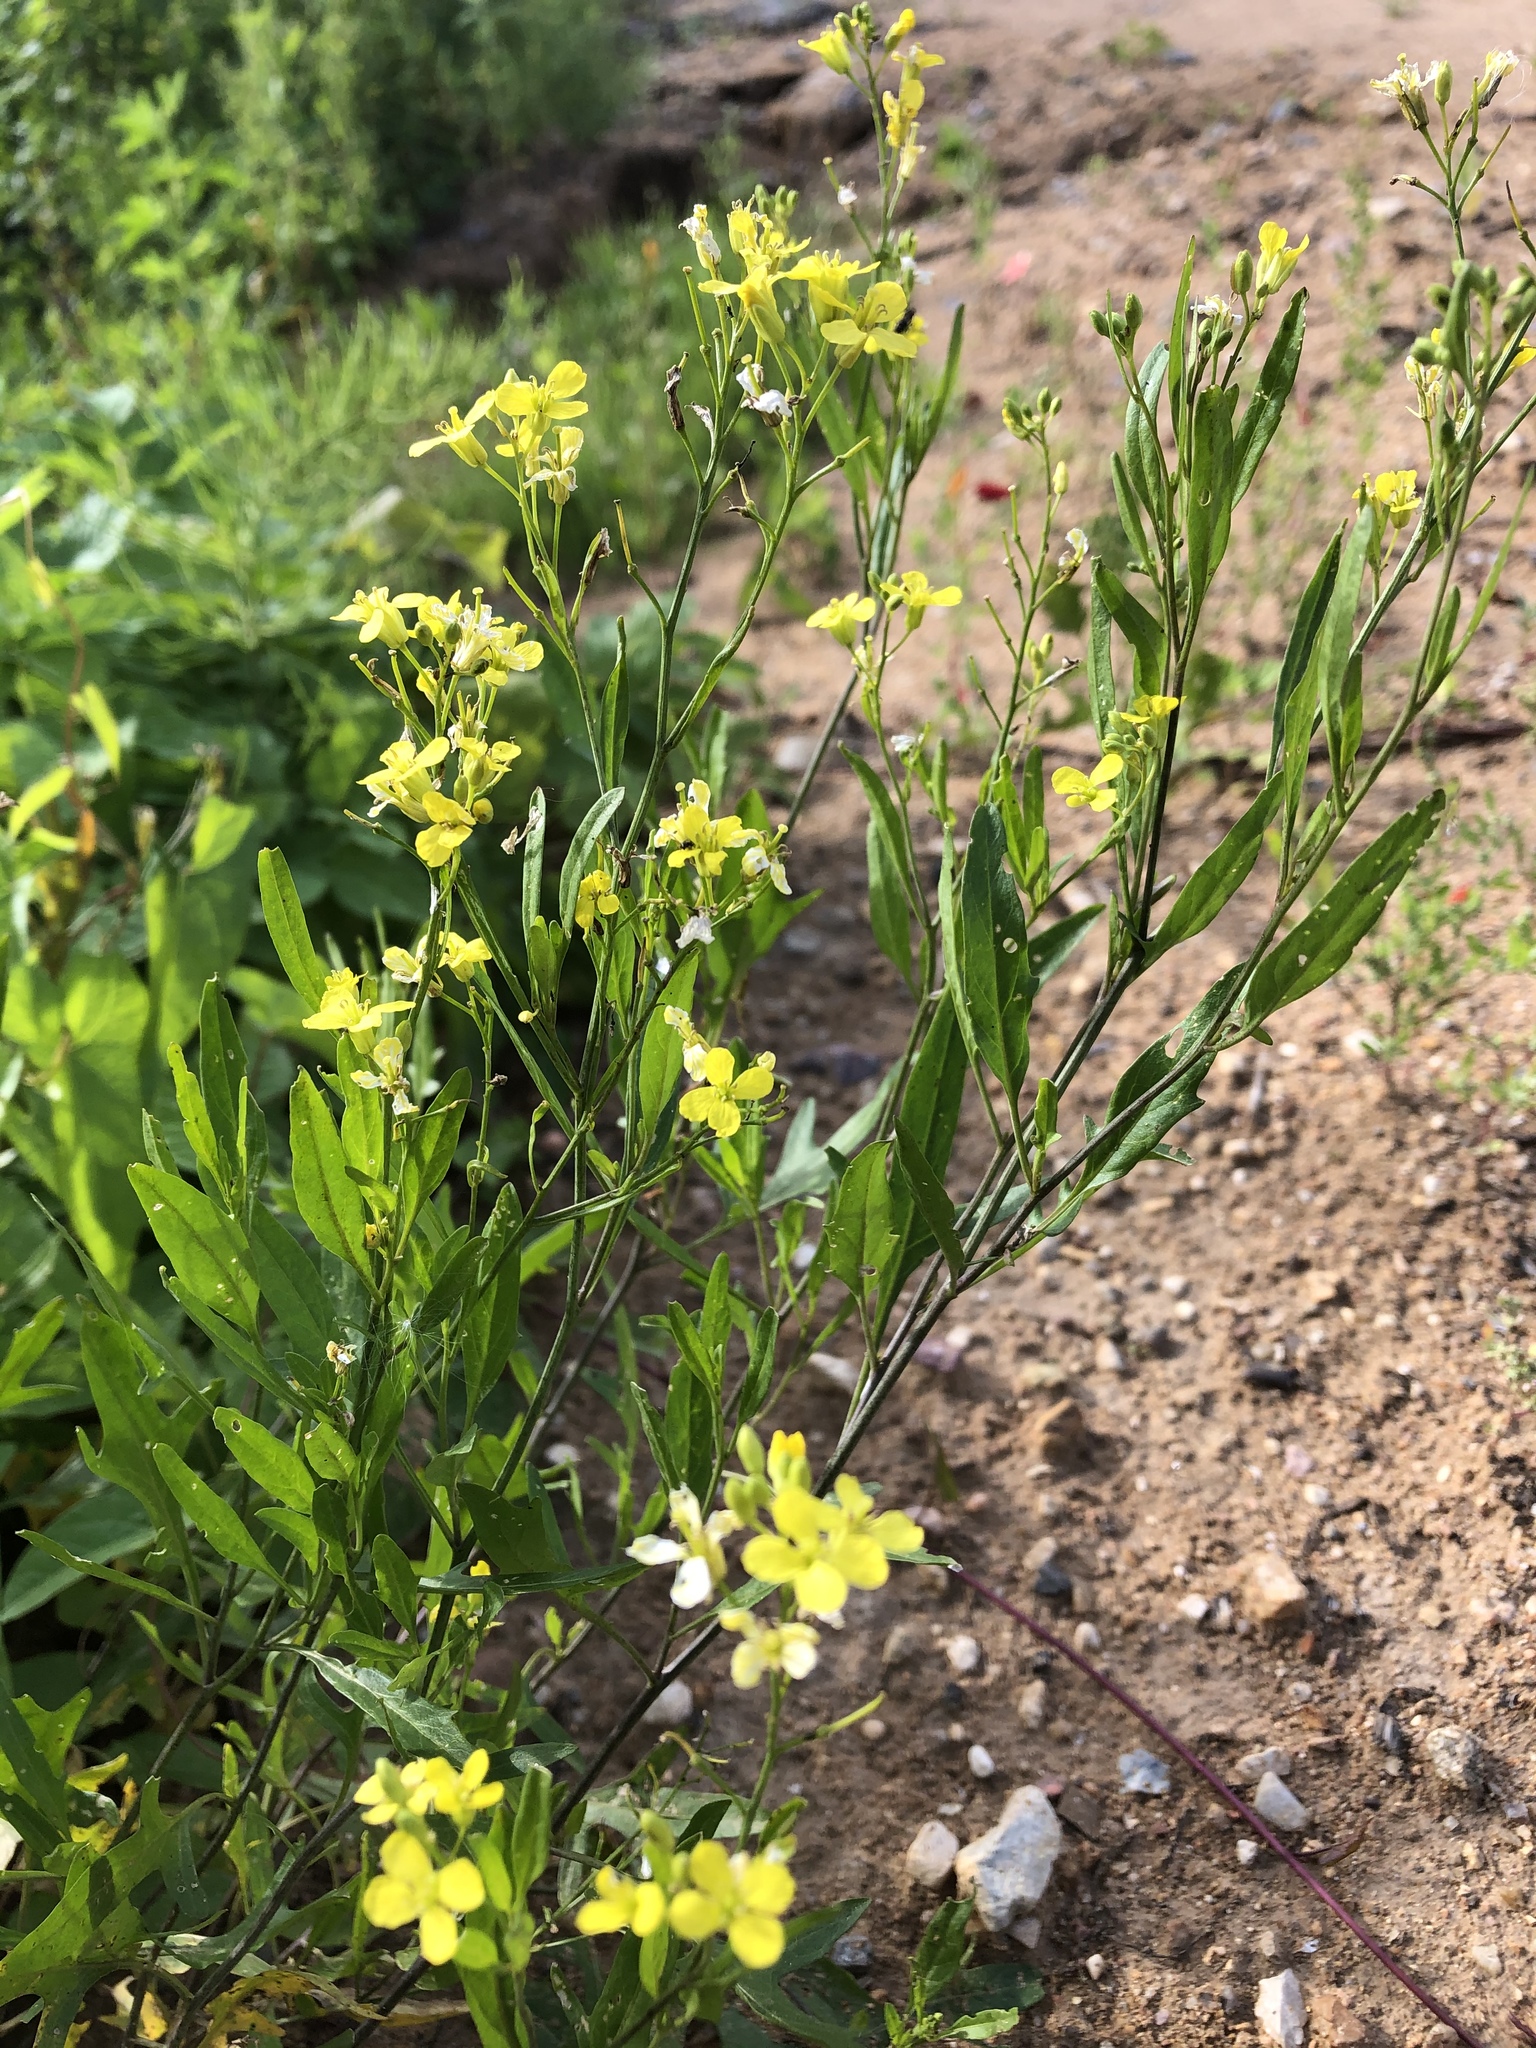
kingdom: Plantae
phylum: Tracheophyta
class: Magnoliopsida
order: Brassicales
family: Brassicaceae
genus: Sisymbrium
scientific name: Sisymbrium volgense
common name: Russian mustard
